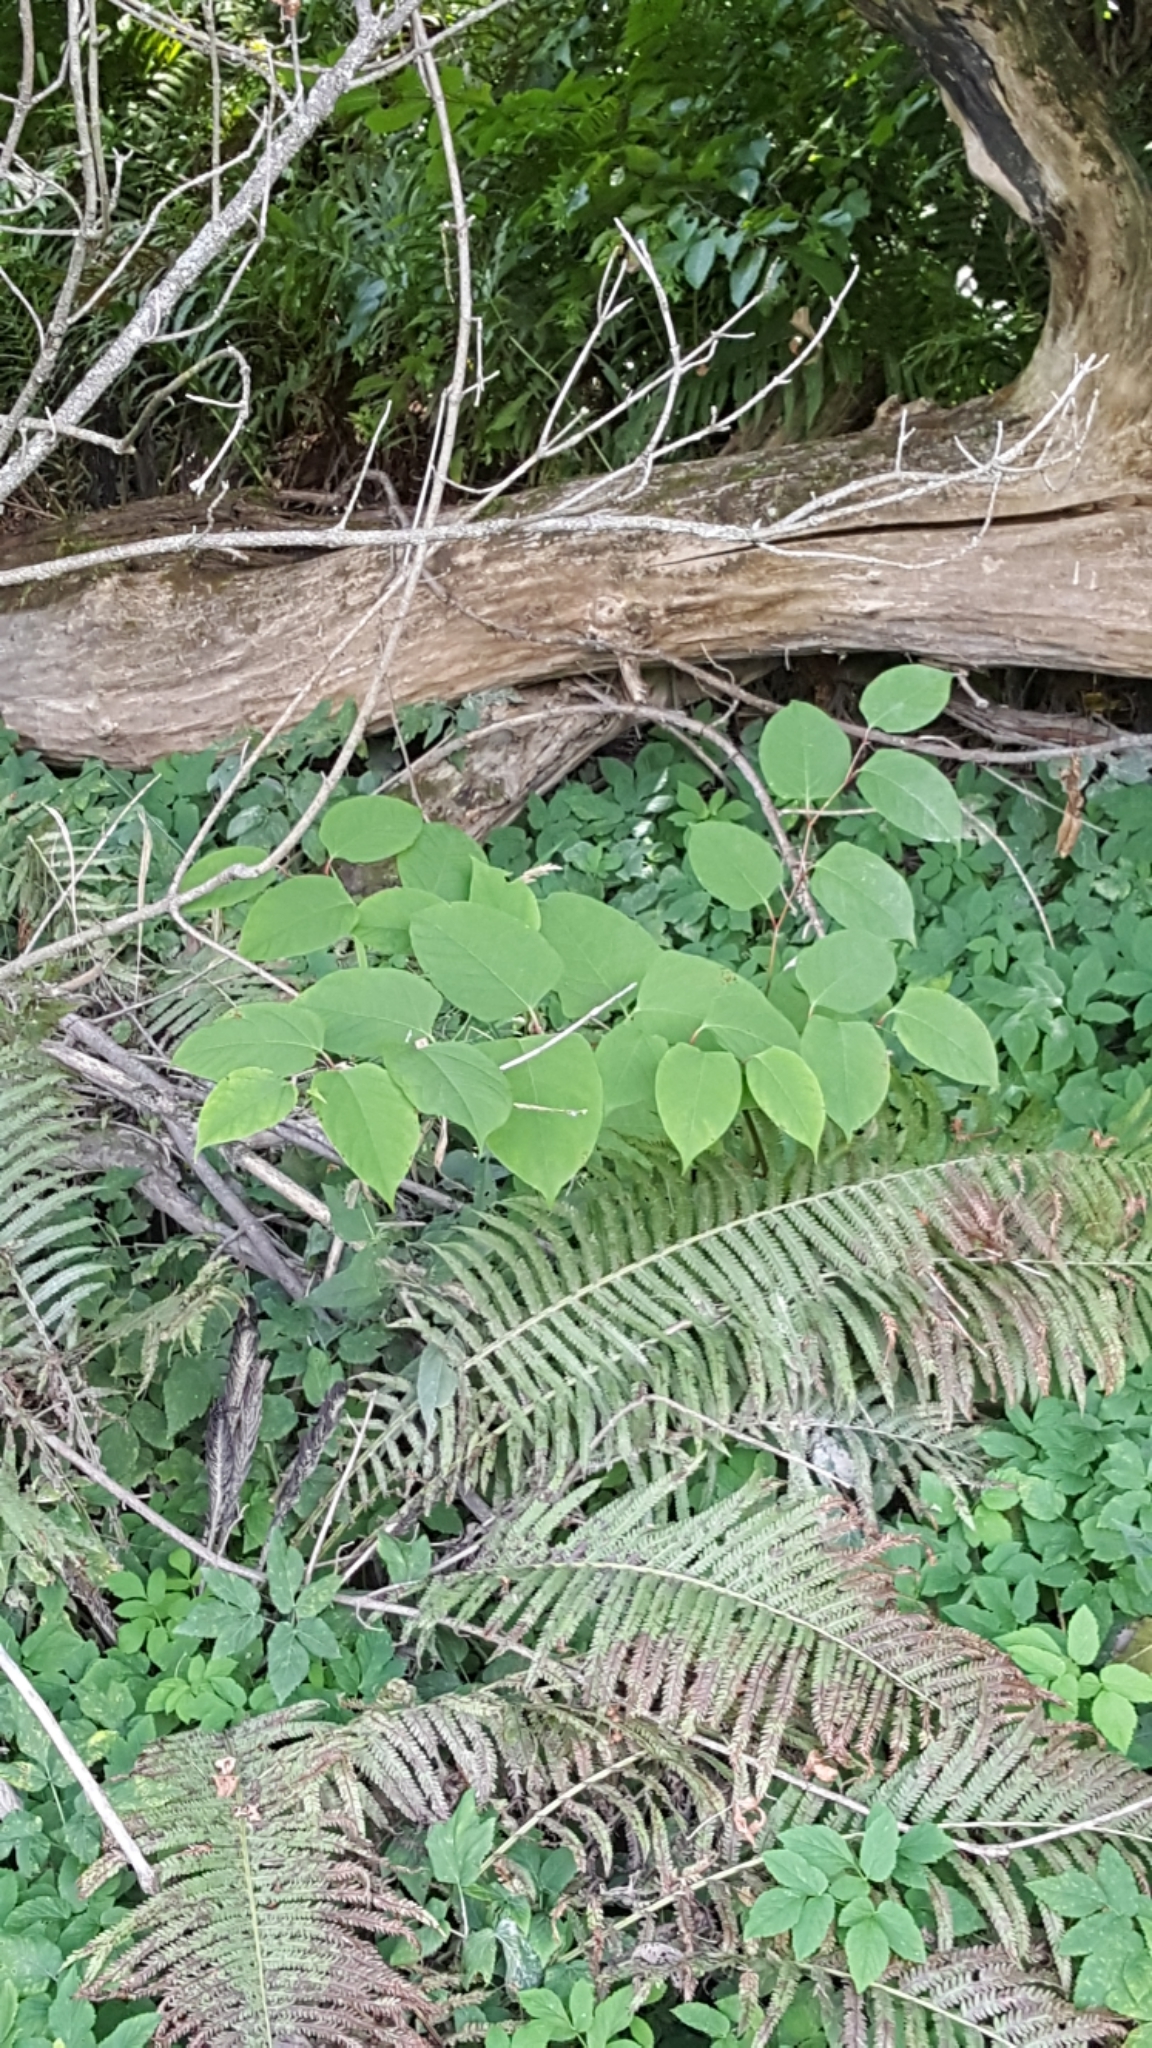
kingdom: Plantae
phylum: Tracheophyta
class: Magnoliopsida
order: Caryophyllales
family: Polygonaceae
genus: Reynoutria
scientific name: Reynoutria japonica
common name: Japanese knotweed
